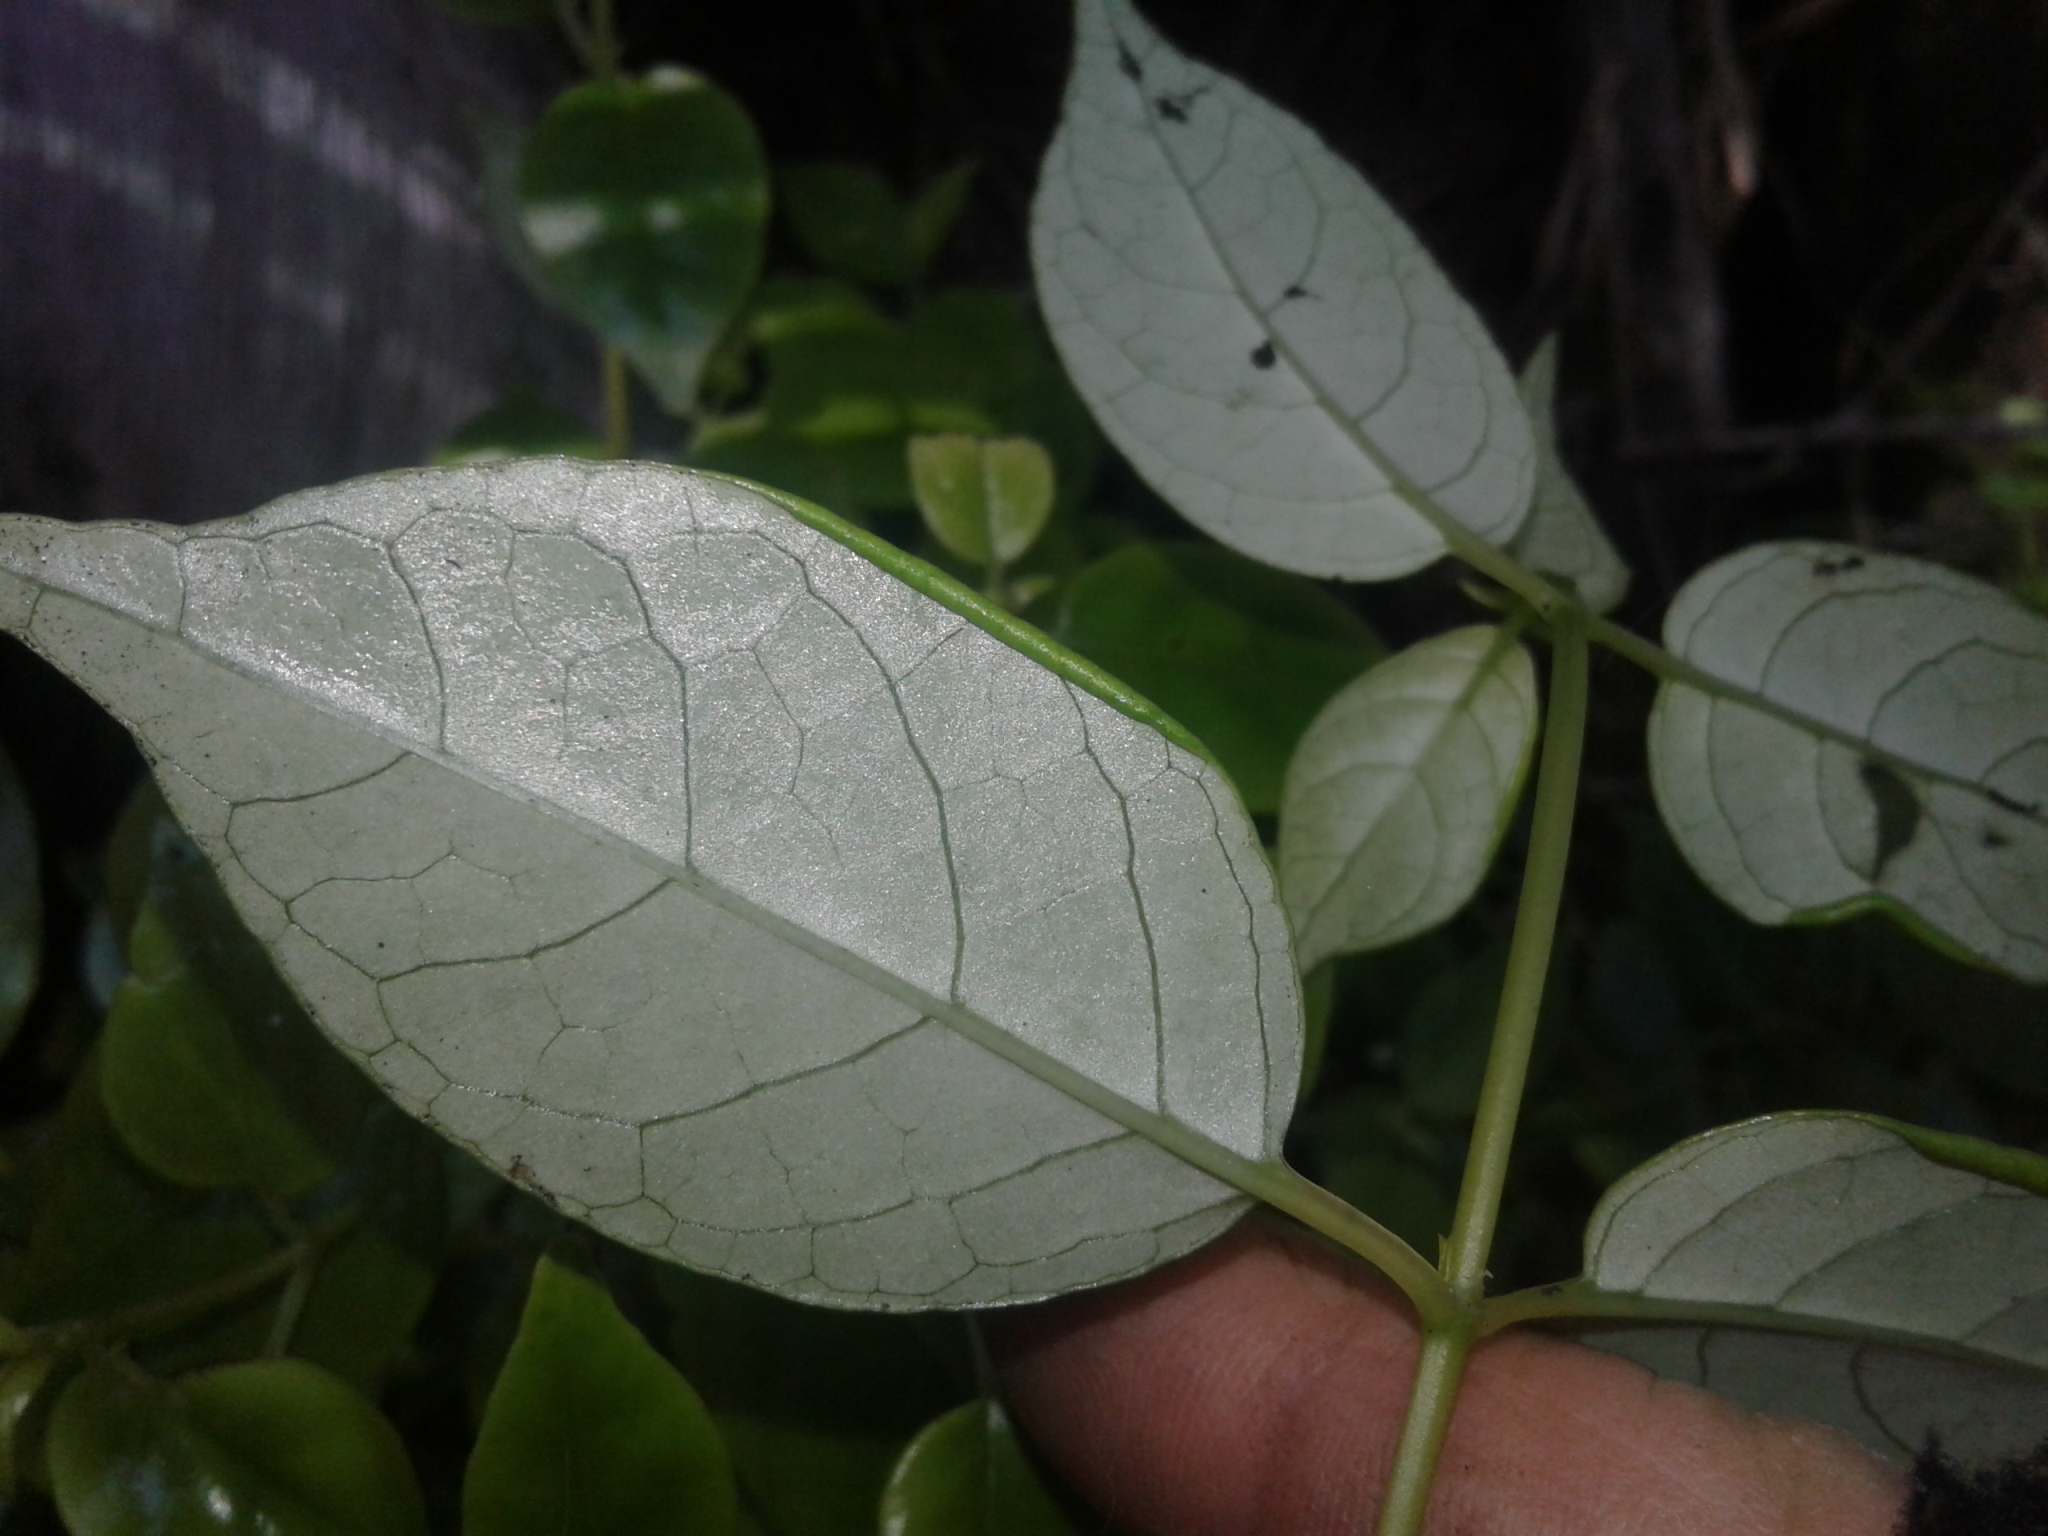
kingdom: Plantae
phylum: Tracheophyta
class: Magnoliopsida
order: Gentianales
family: Loganiaceae
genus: Geniostoma
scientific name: Geniostoma ligustrifolium
